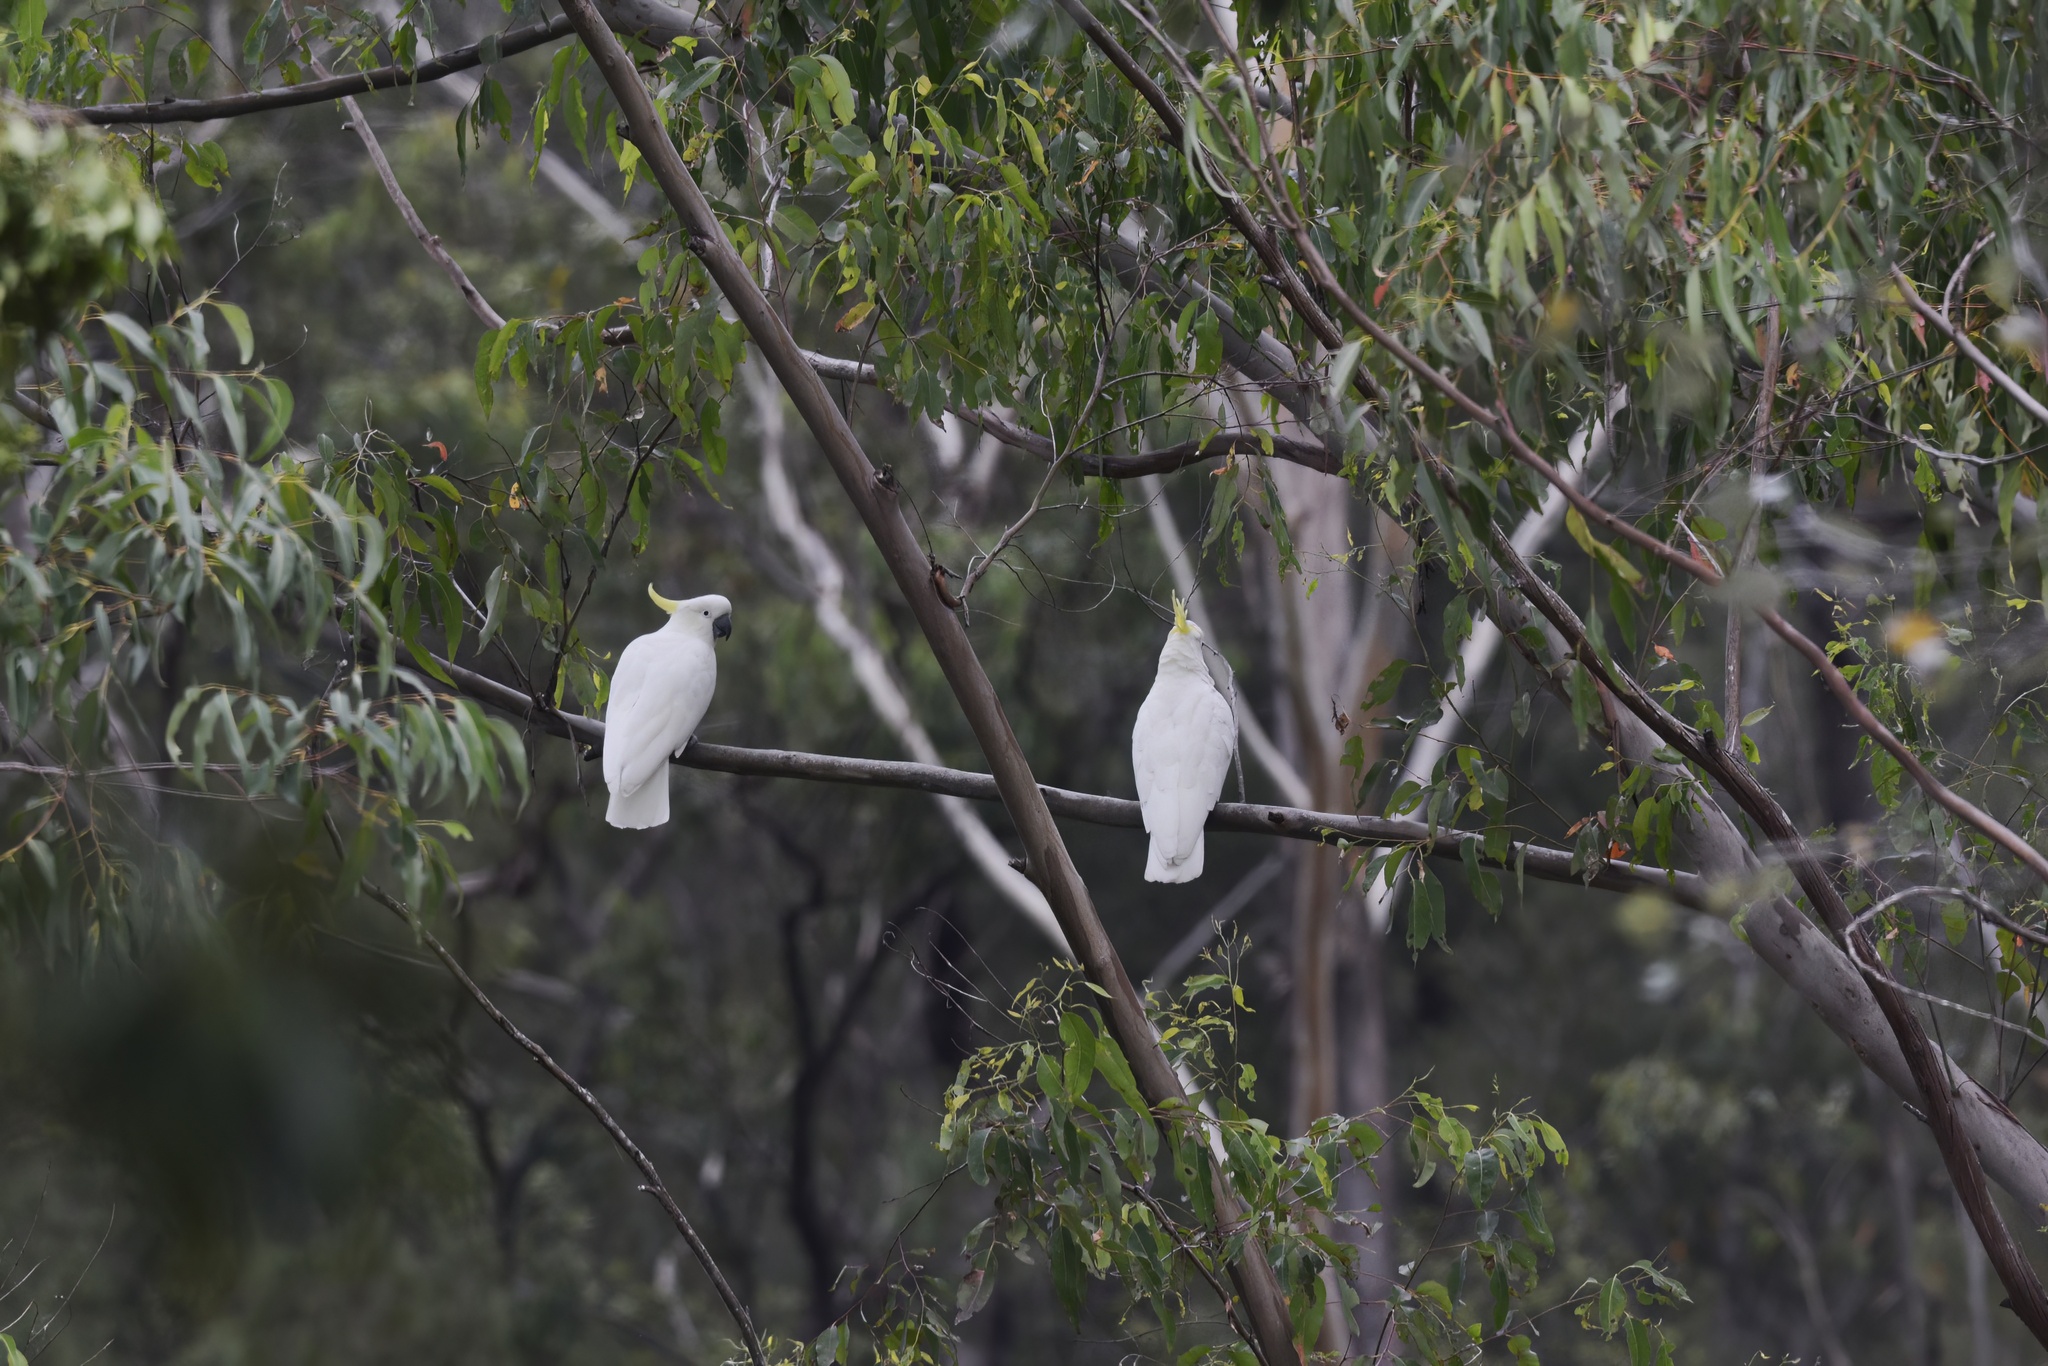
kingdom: Animalia
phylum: Chordata
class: Aves
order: Psittaciformes
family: Psittacidae
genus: Cacatua
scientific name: Cacatua galerita
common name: Sulphur-crested cockatoo
